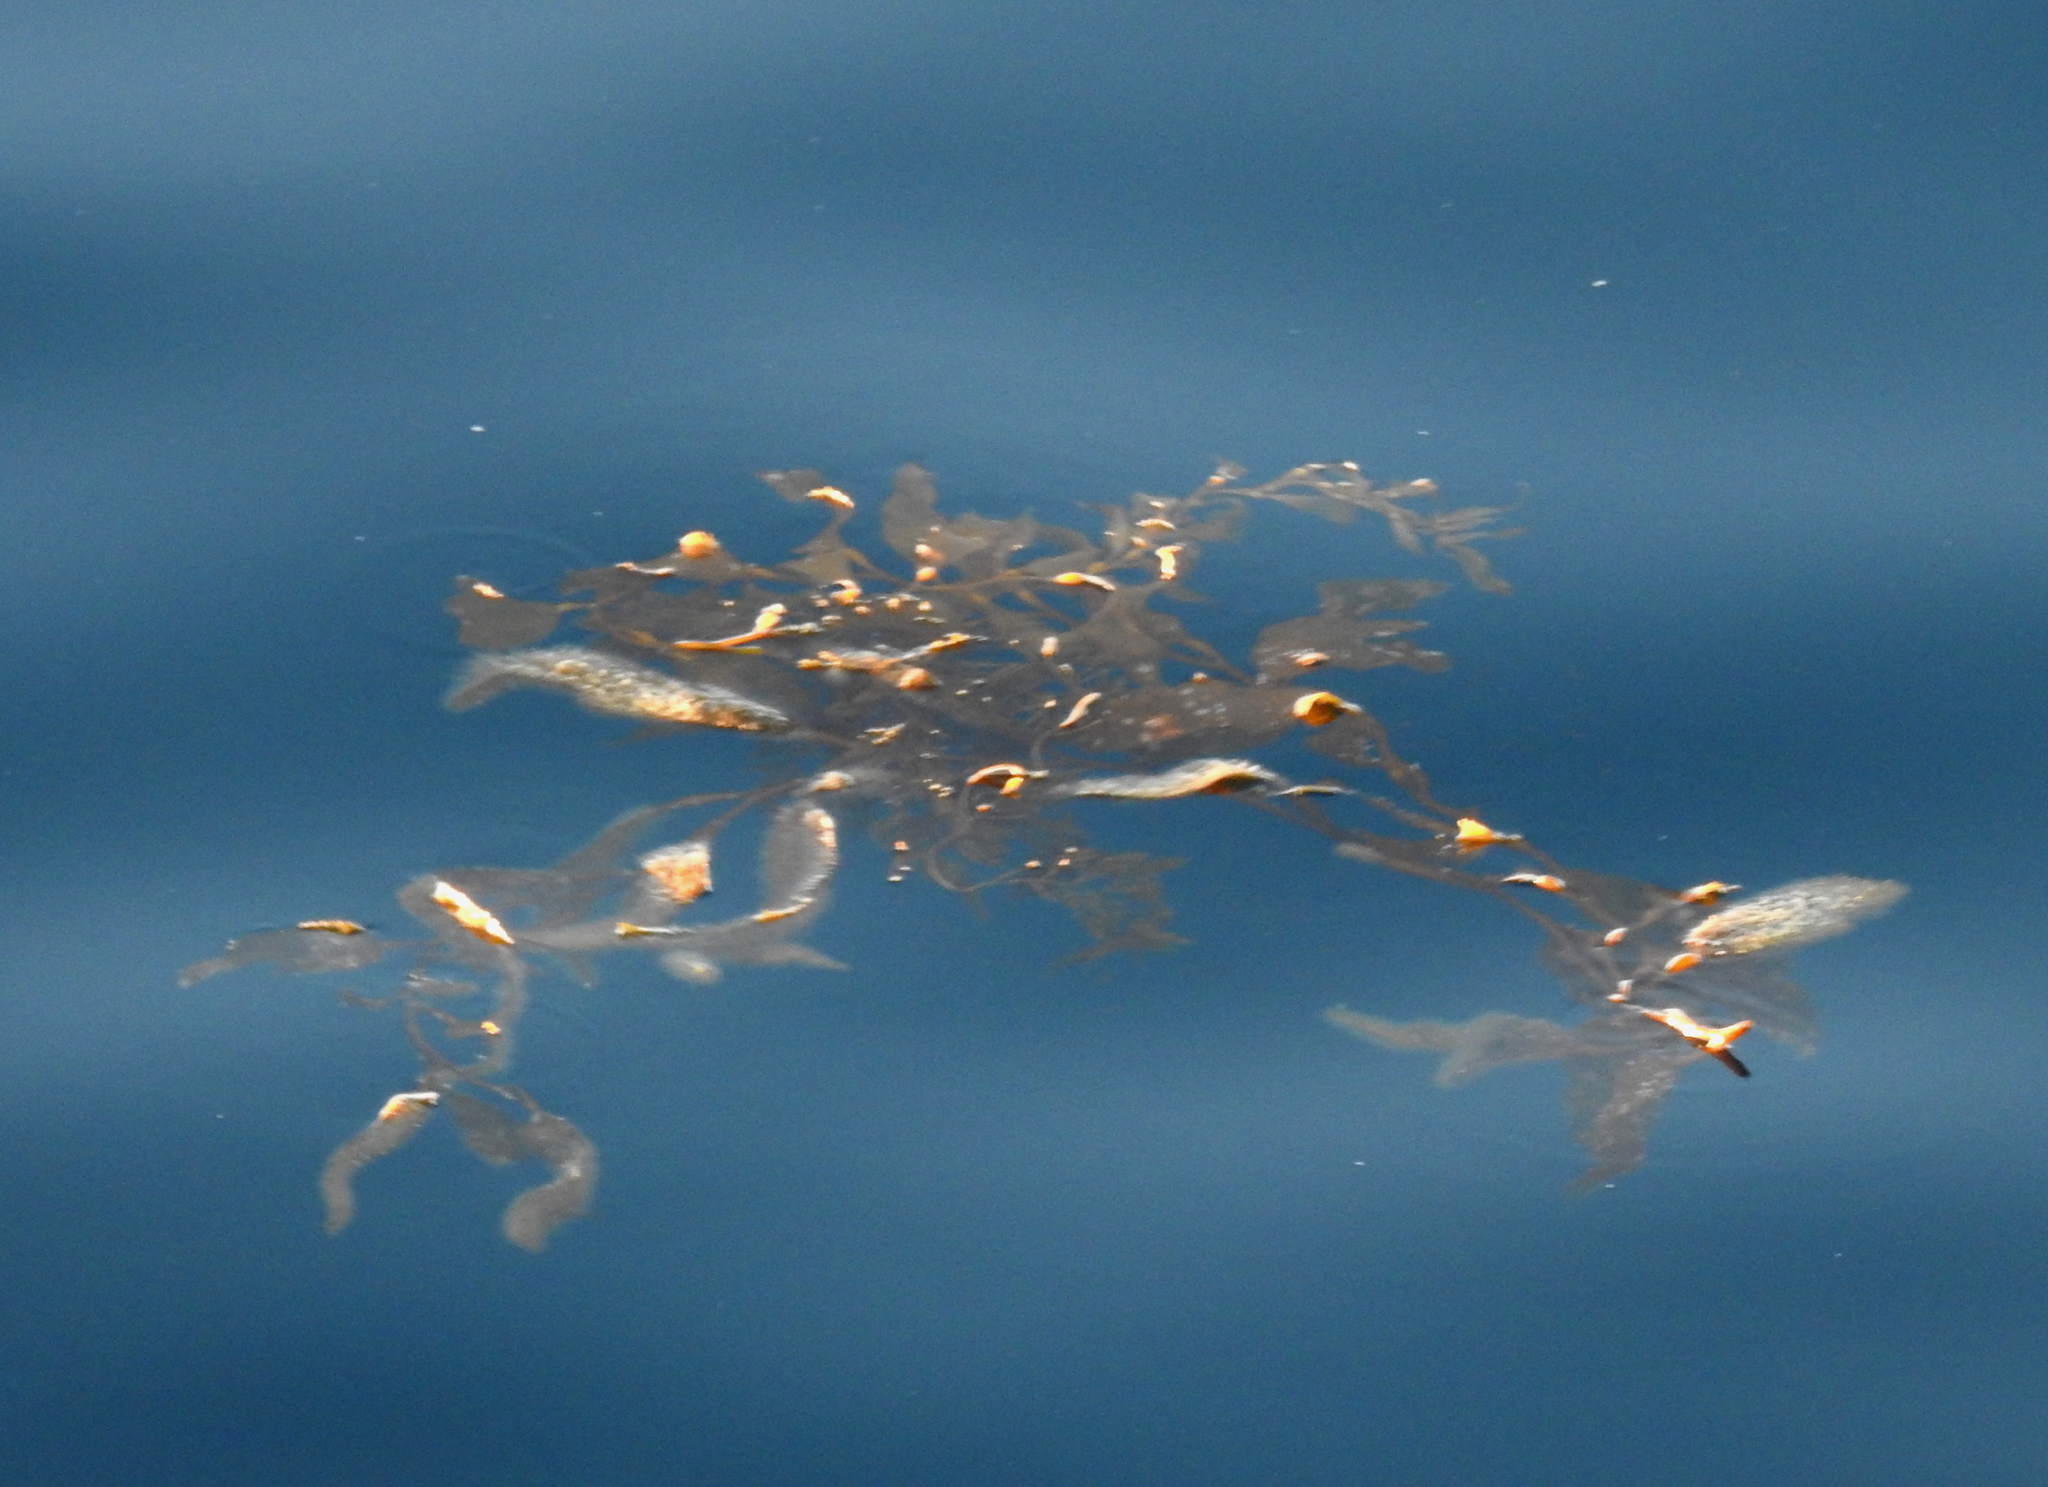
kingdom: Chromista
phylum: Ochrophyta
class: Phaeophyceae
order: Laminariales
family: Laminariaceae
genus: Macrocystis
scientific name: Macrocystis pyrifera
